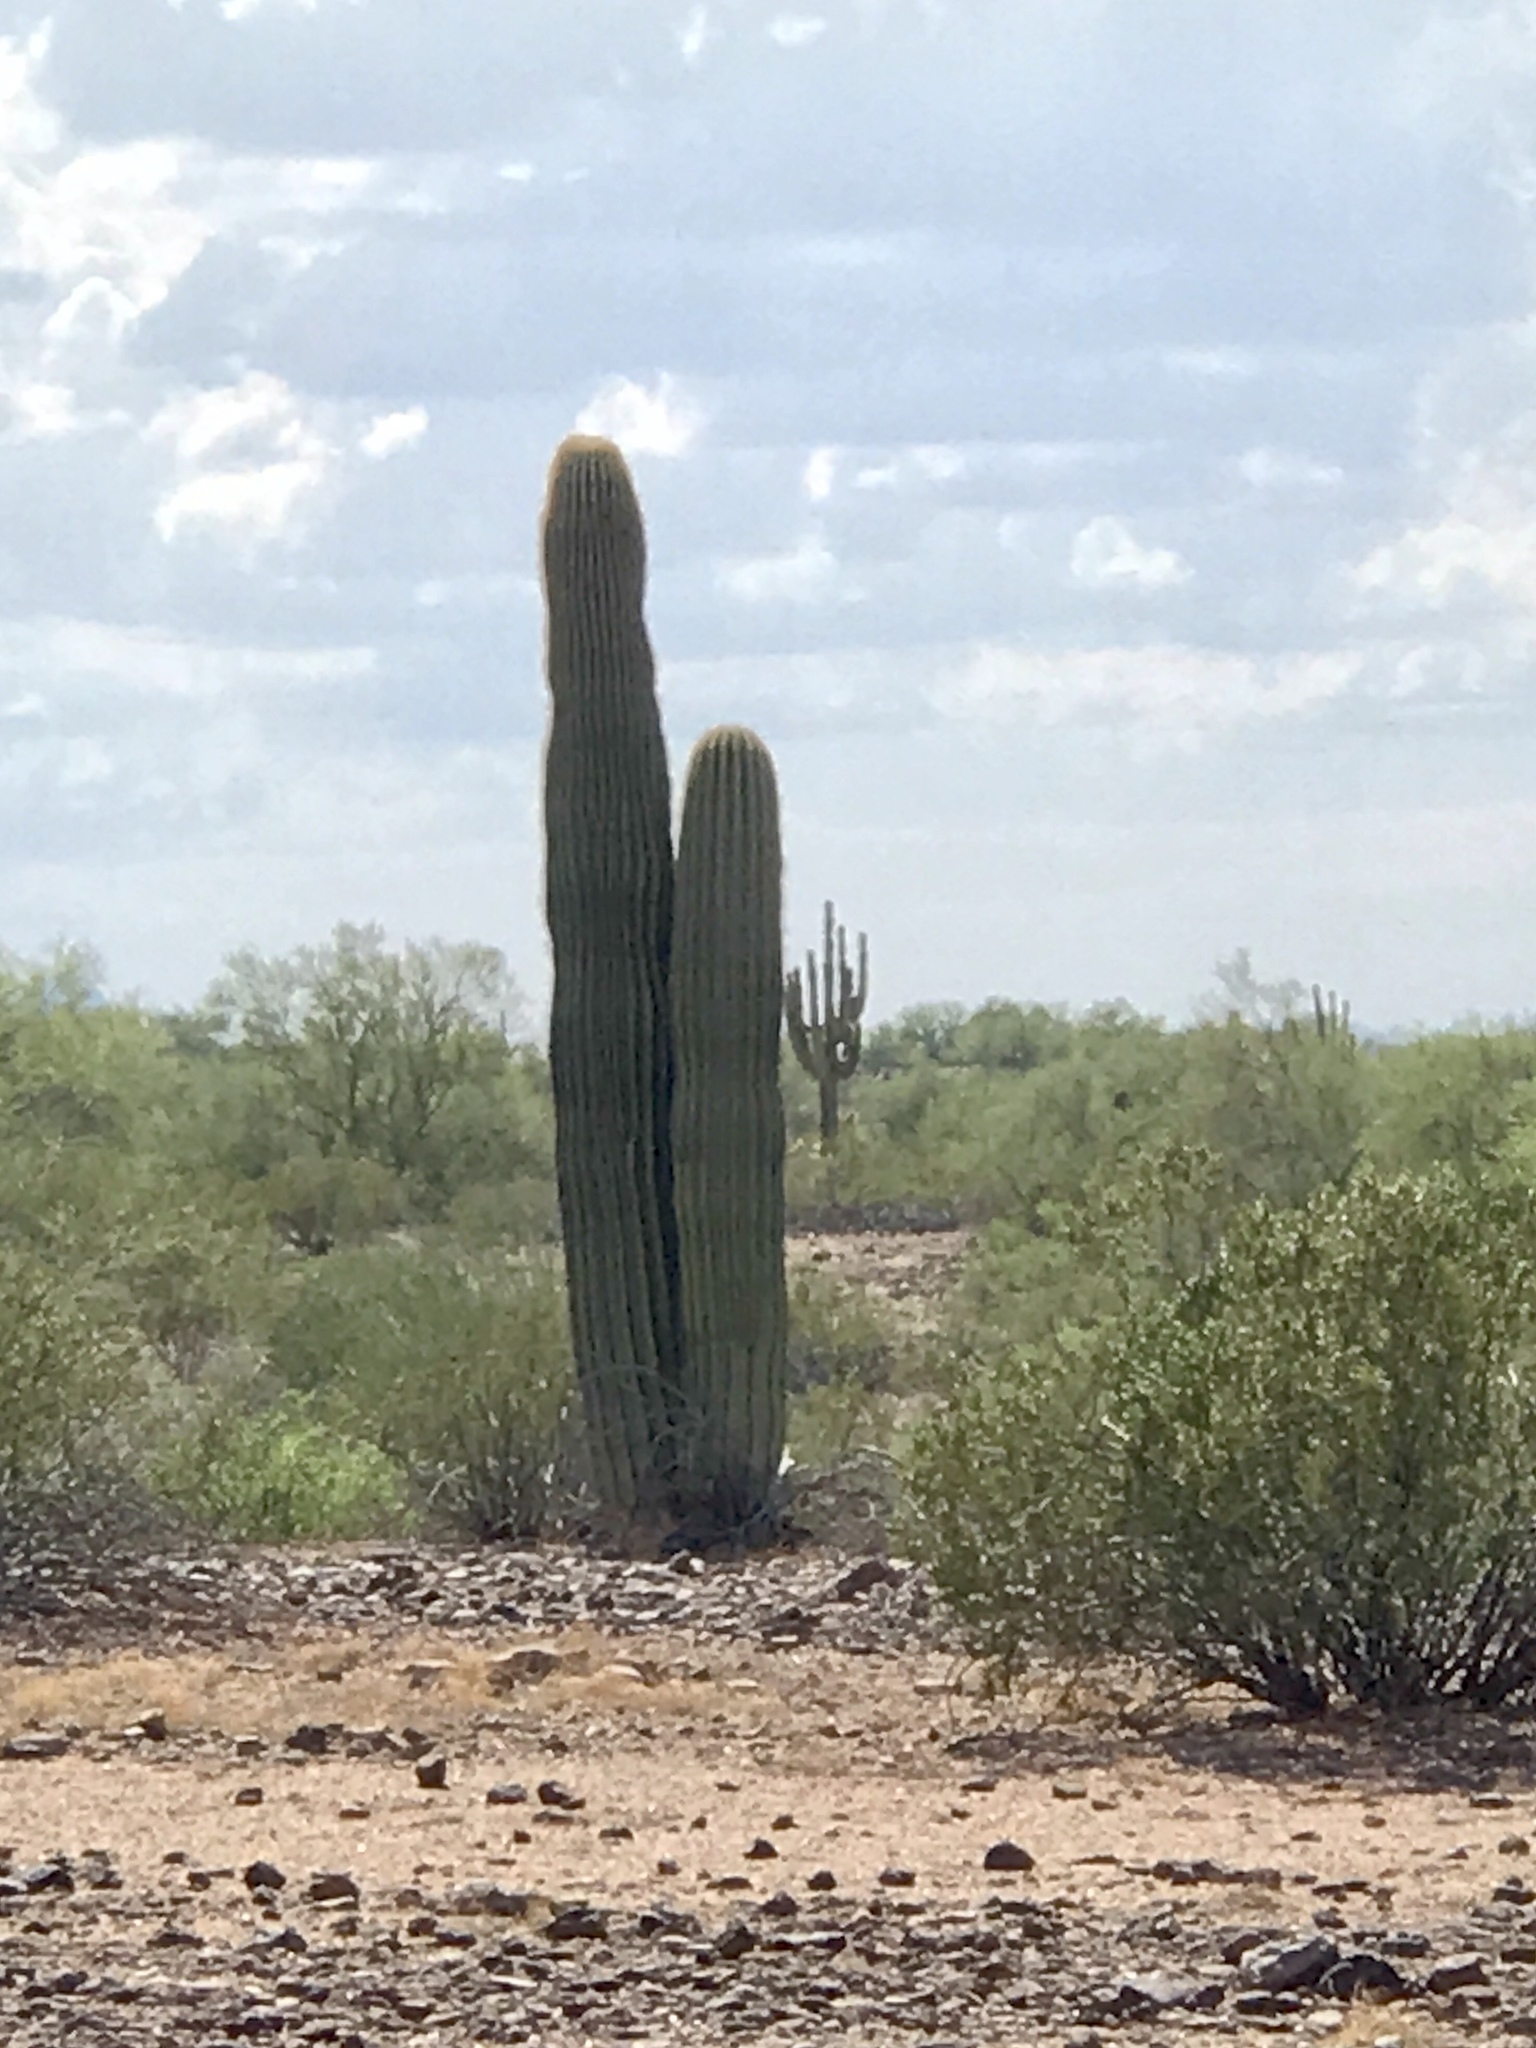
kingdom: Plantae
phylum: Tracheophyta
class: Magnoliopsida
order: Caryophyllales
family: Cactaceae
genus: Carnegiea
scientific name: Carnegiea gigantea
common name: Saguaro
